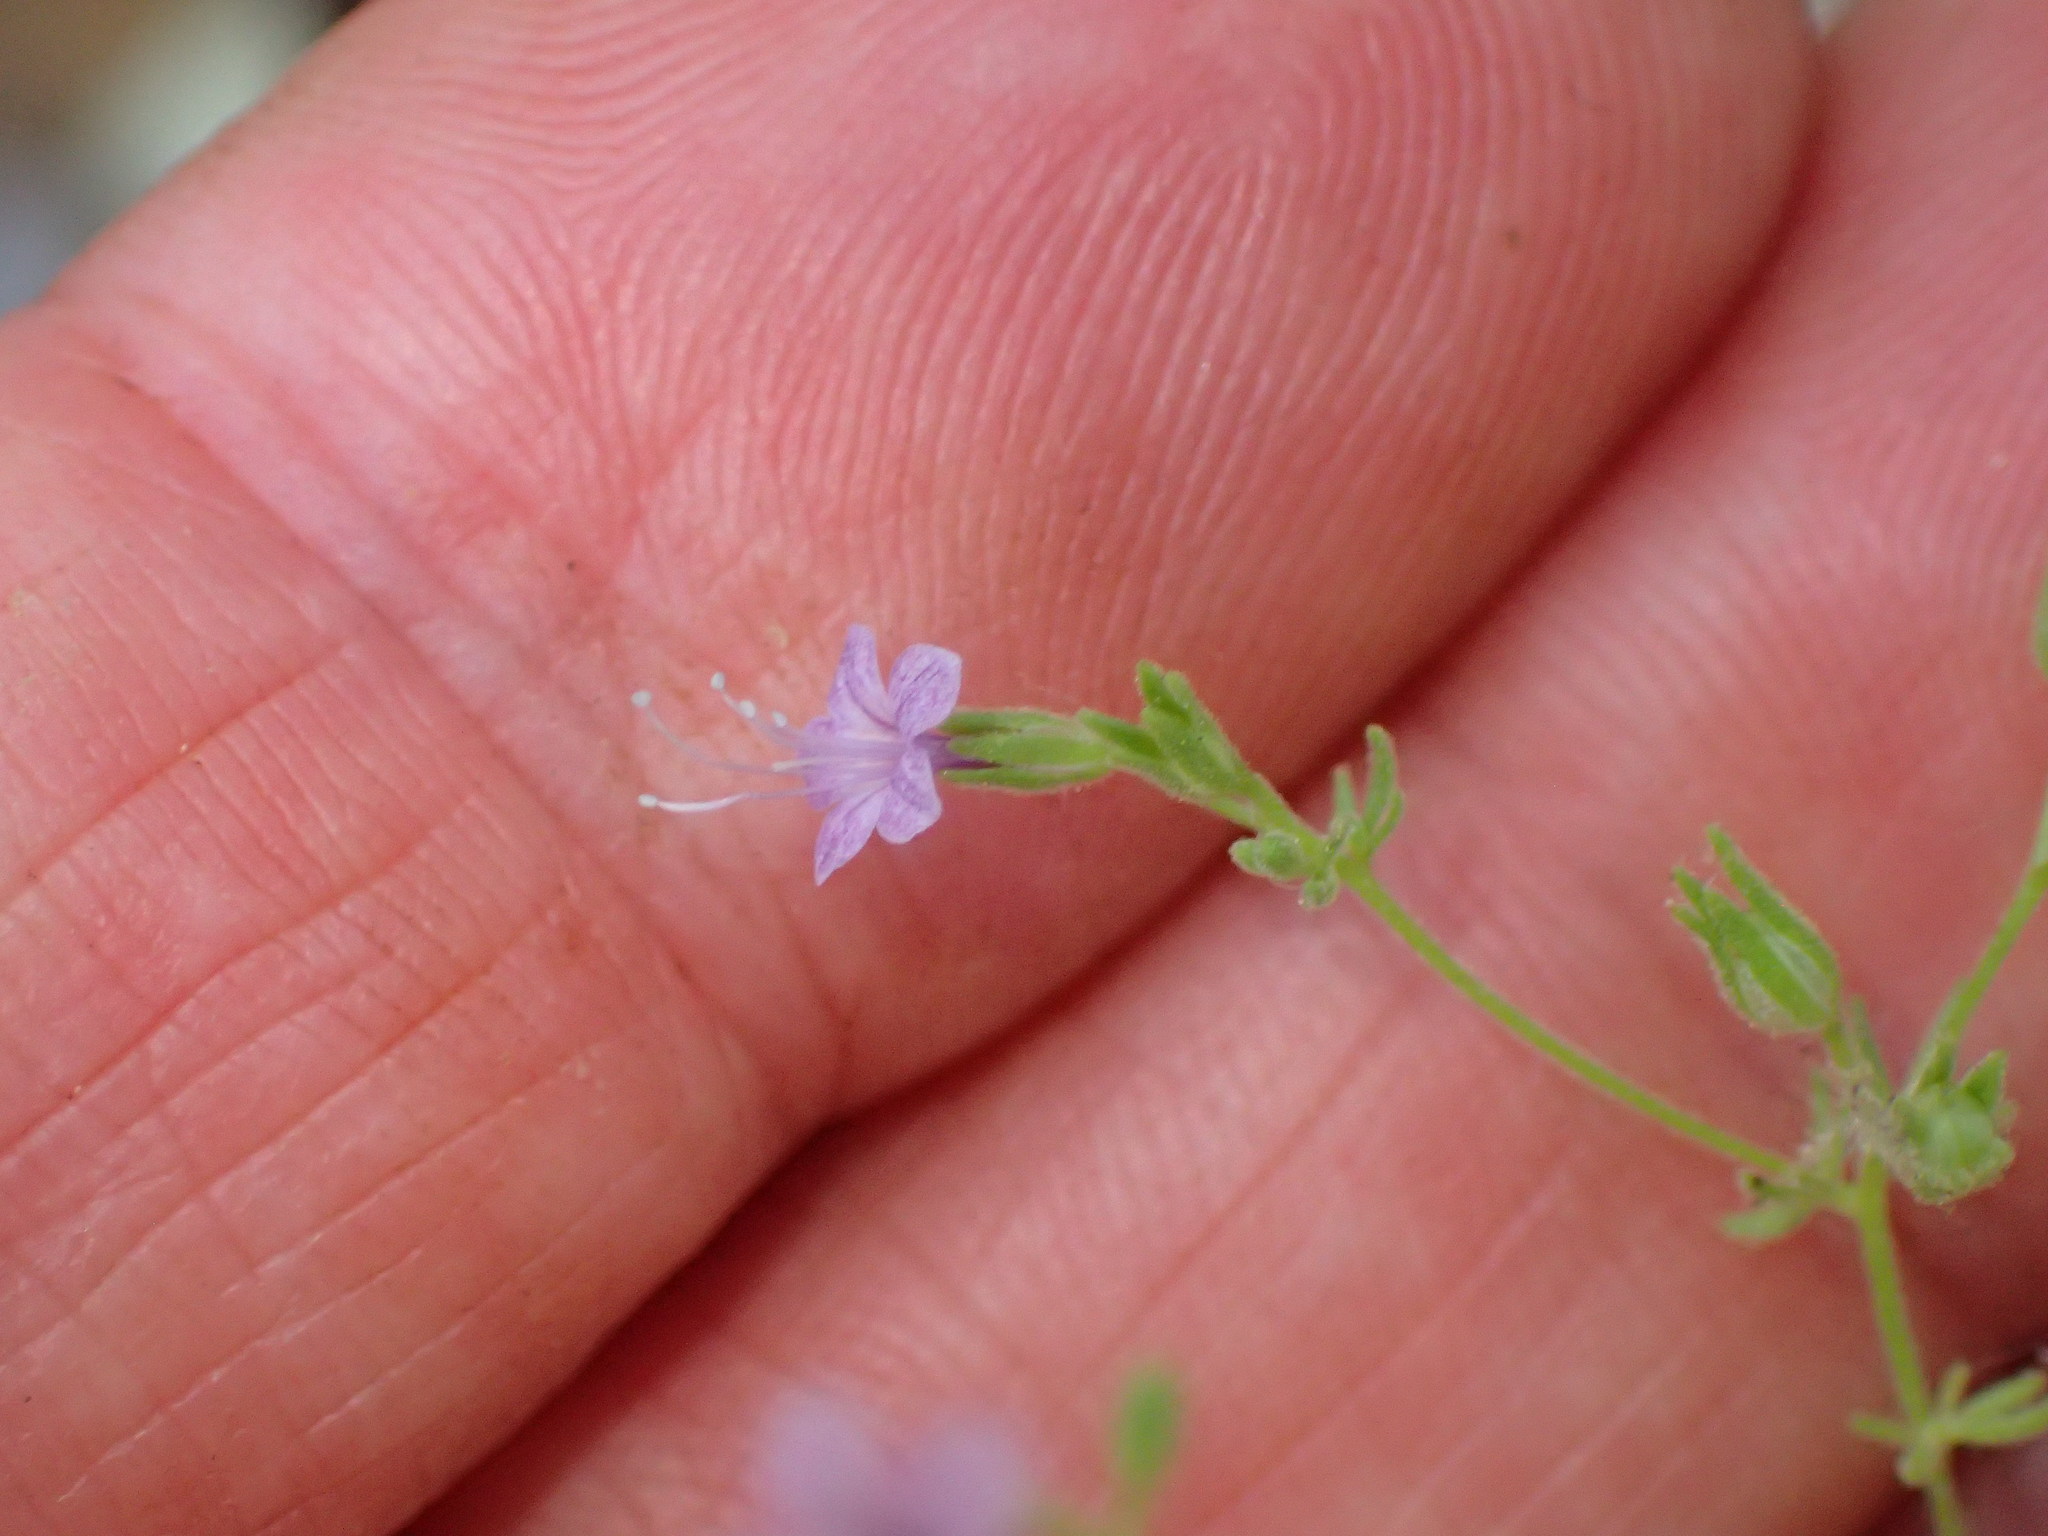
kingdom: Plantae
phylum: Tracheophyta
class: Magnoliopsida
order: Ericales
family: Polemoniaceae
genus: Allophyllum
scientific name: Allophyllum glutinosum
